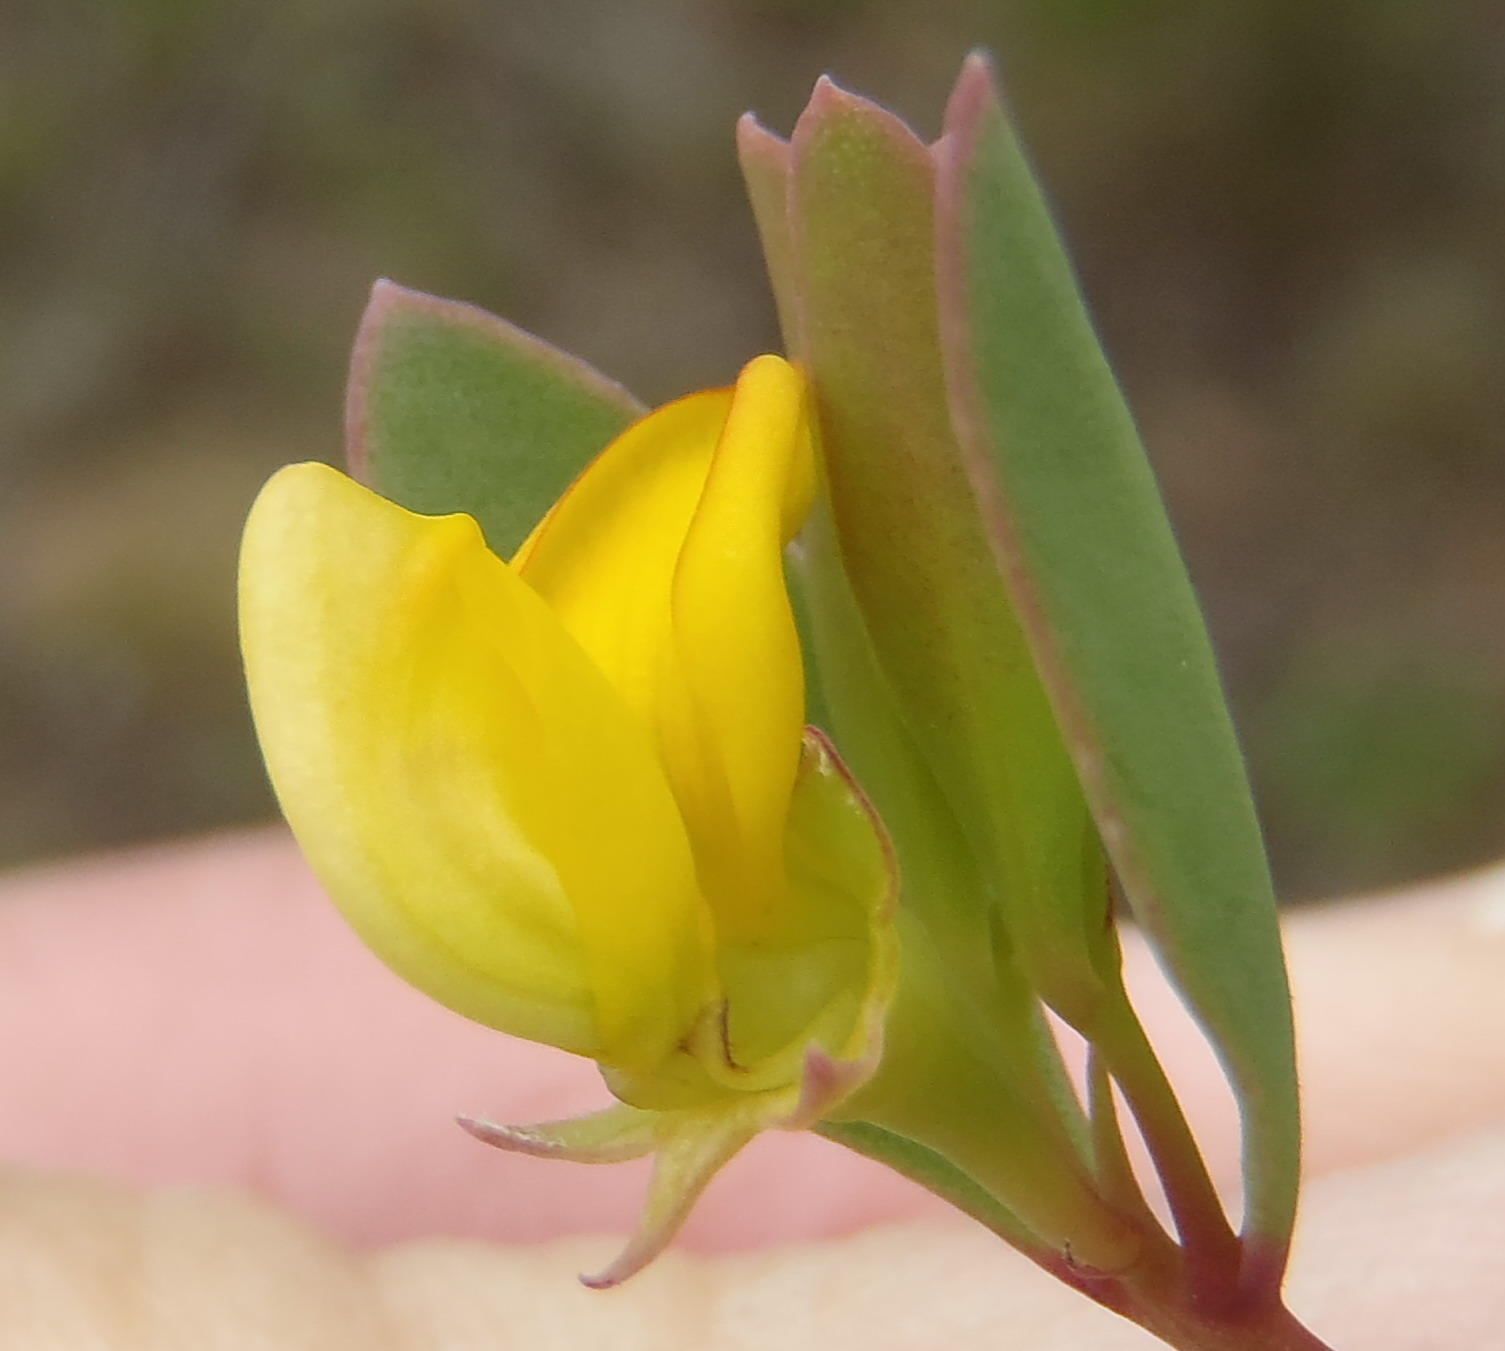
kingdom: Plantae
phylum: Tracheophyta
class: Magnoliopsida
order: Fabales
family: Fabaceae
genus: Rafnia
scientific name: Rafnia capensis
